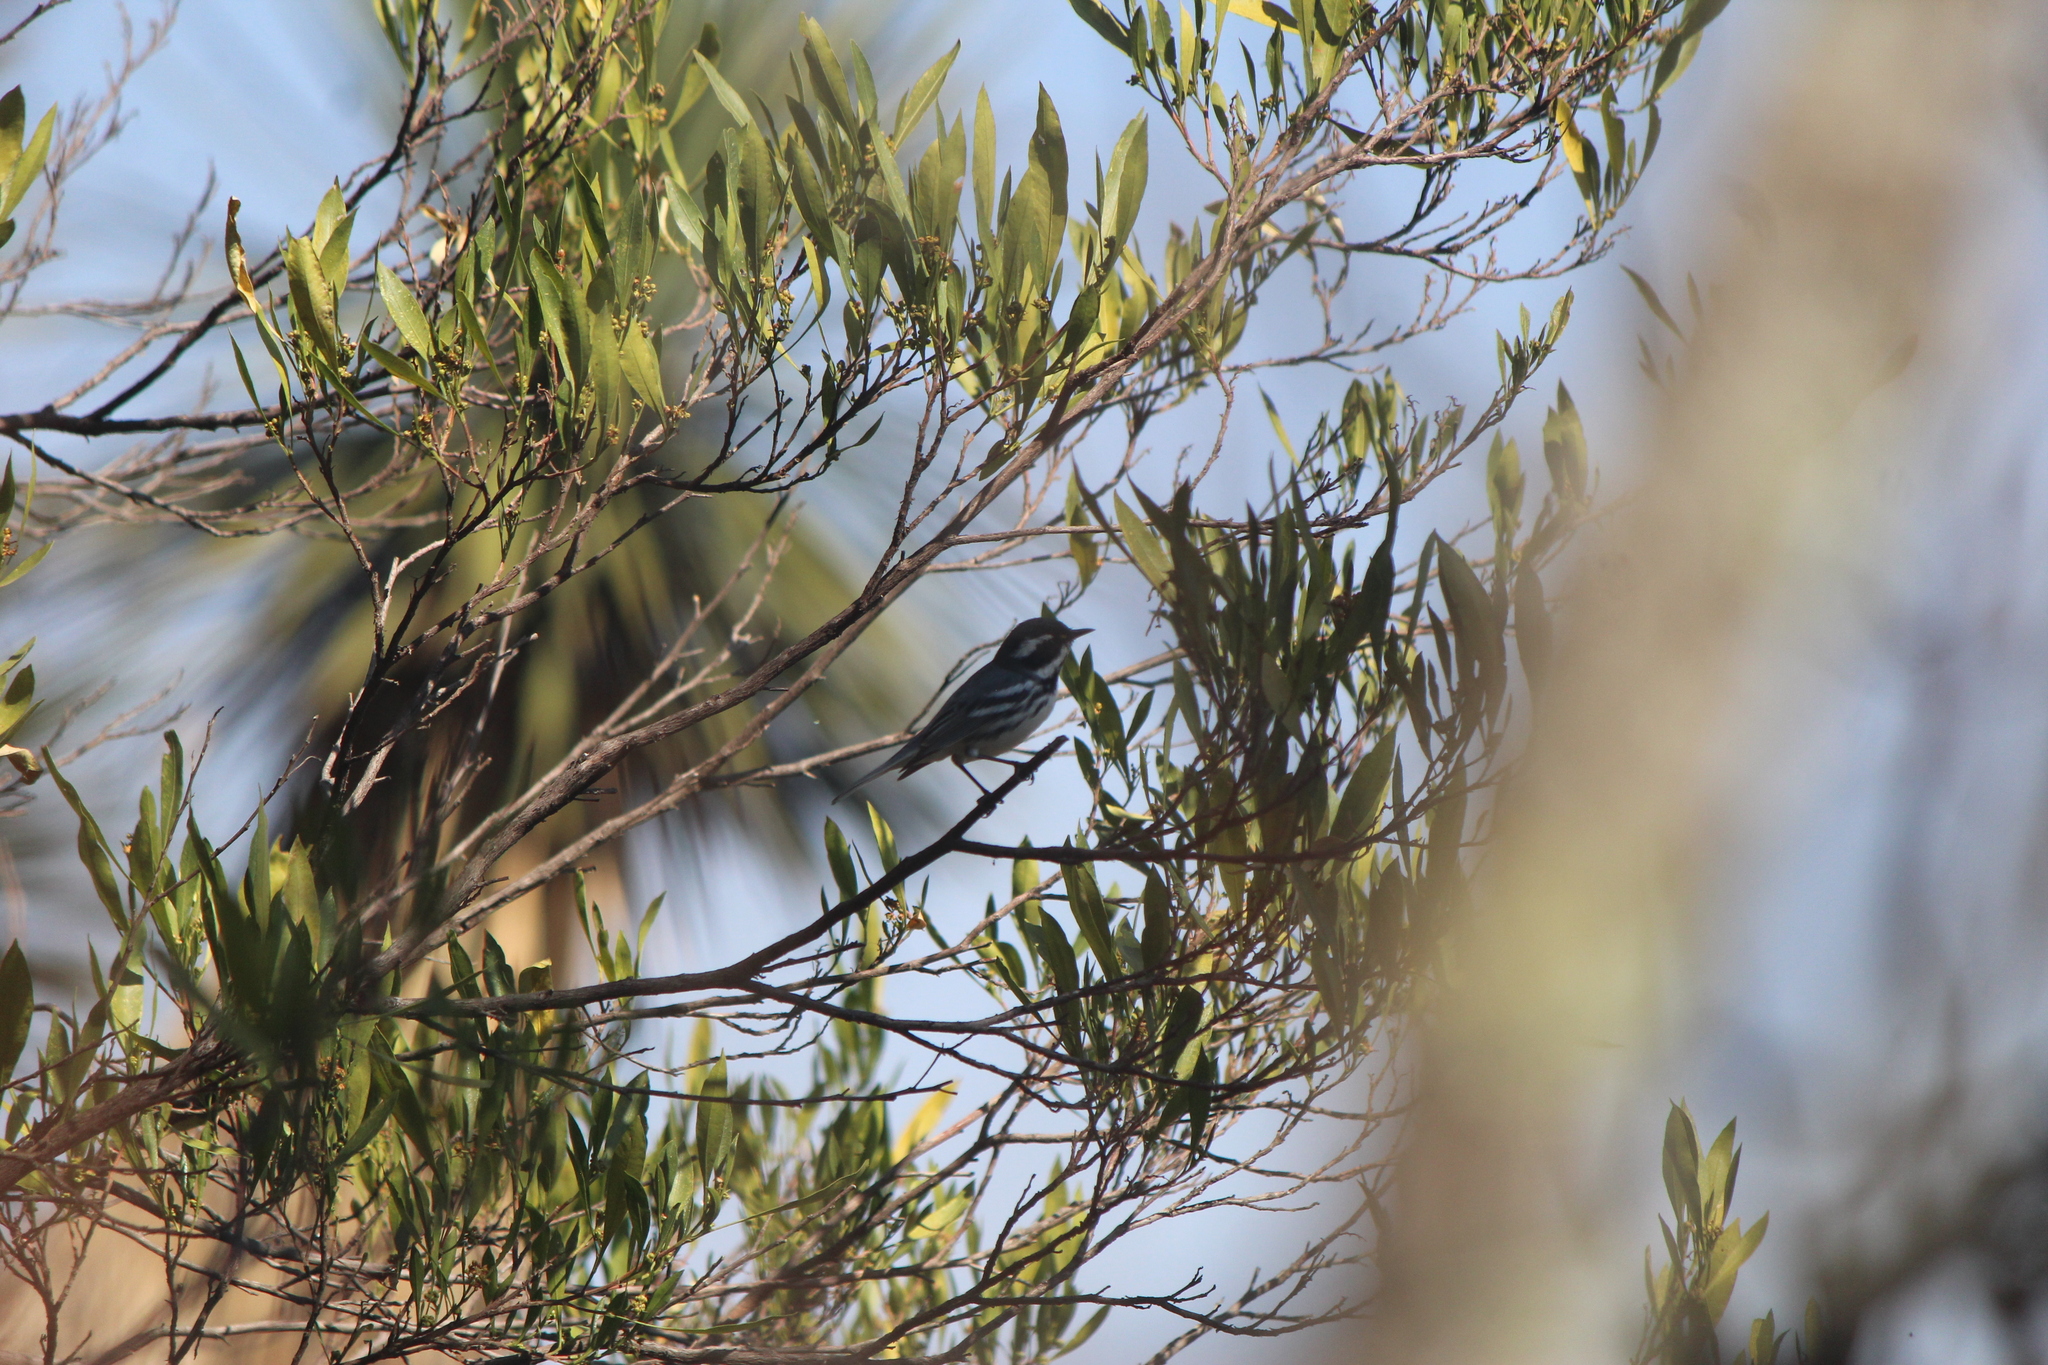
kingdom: Animalia
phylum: Chordata
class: Aves
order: Passeriformes
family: Parulidae
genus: Setophaga
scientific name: Setophaga nigrescens
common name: Black-throated gray warbler
